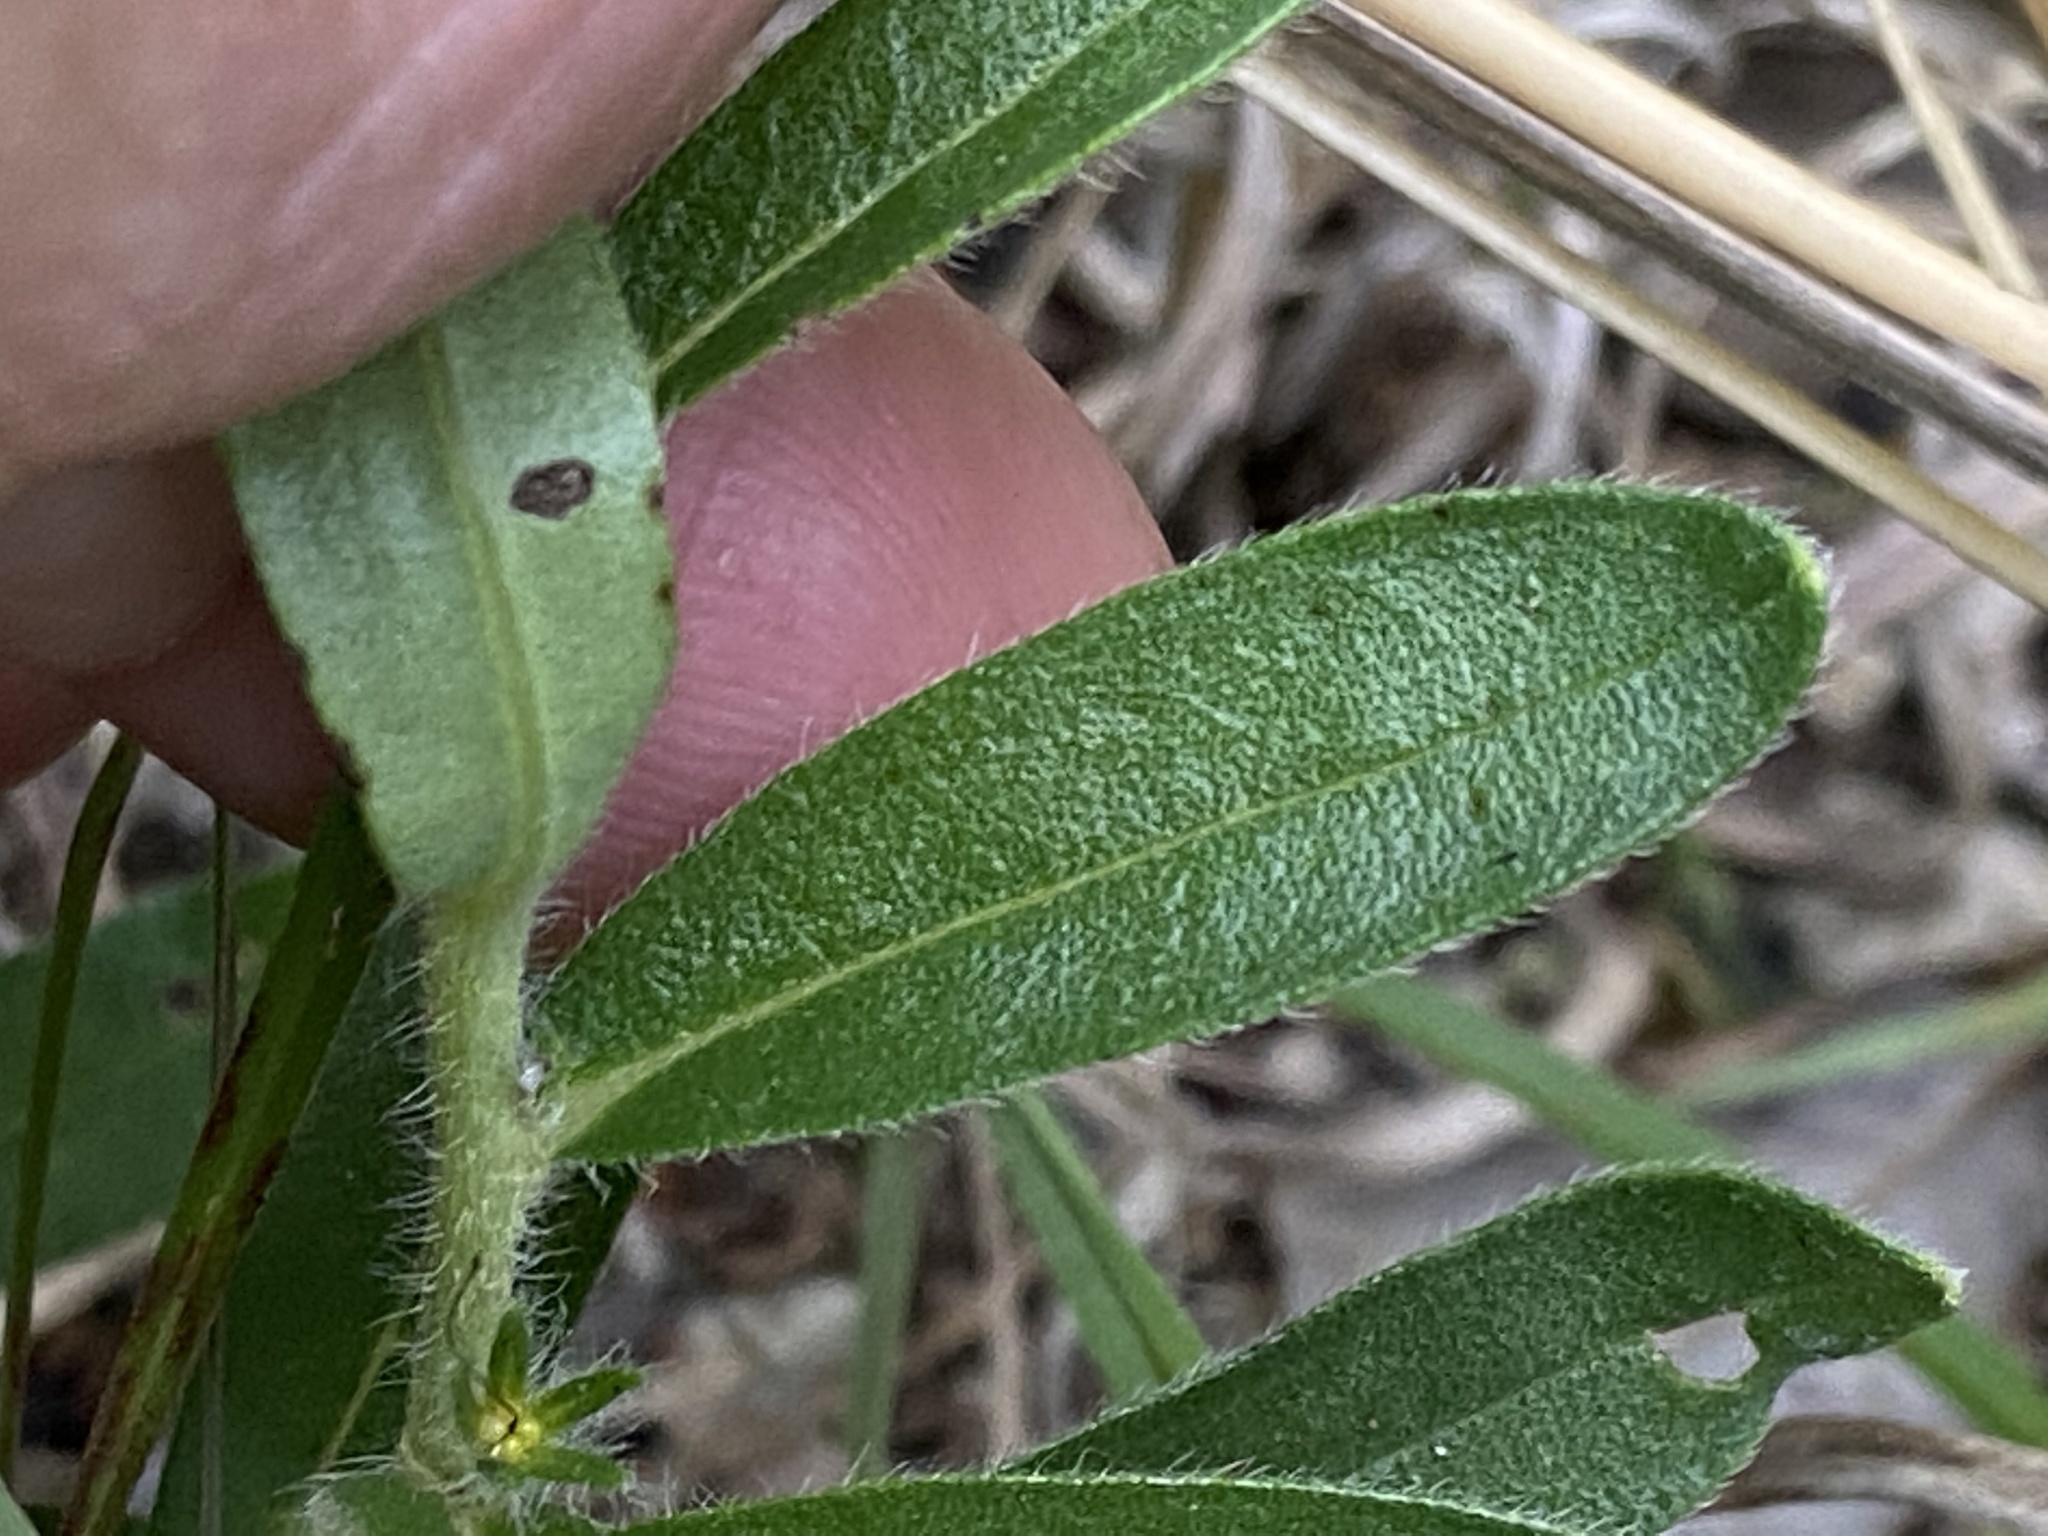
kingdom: Plantae
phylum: Tracheophyta
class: Magnoliopsida
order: Boraginales
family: Boraginaceae
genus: Lithospermum
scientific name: Lithospermum canescens
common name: Hoary puccoon
